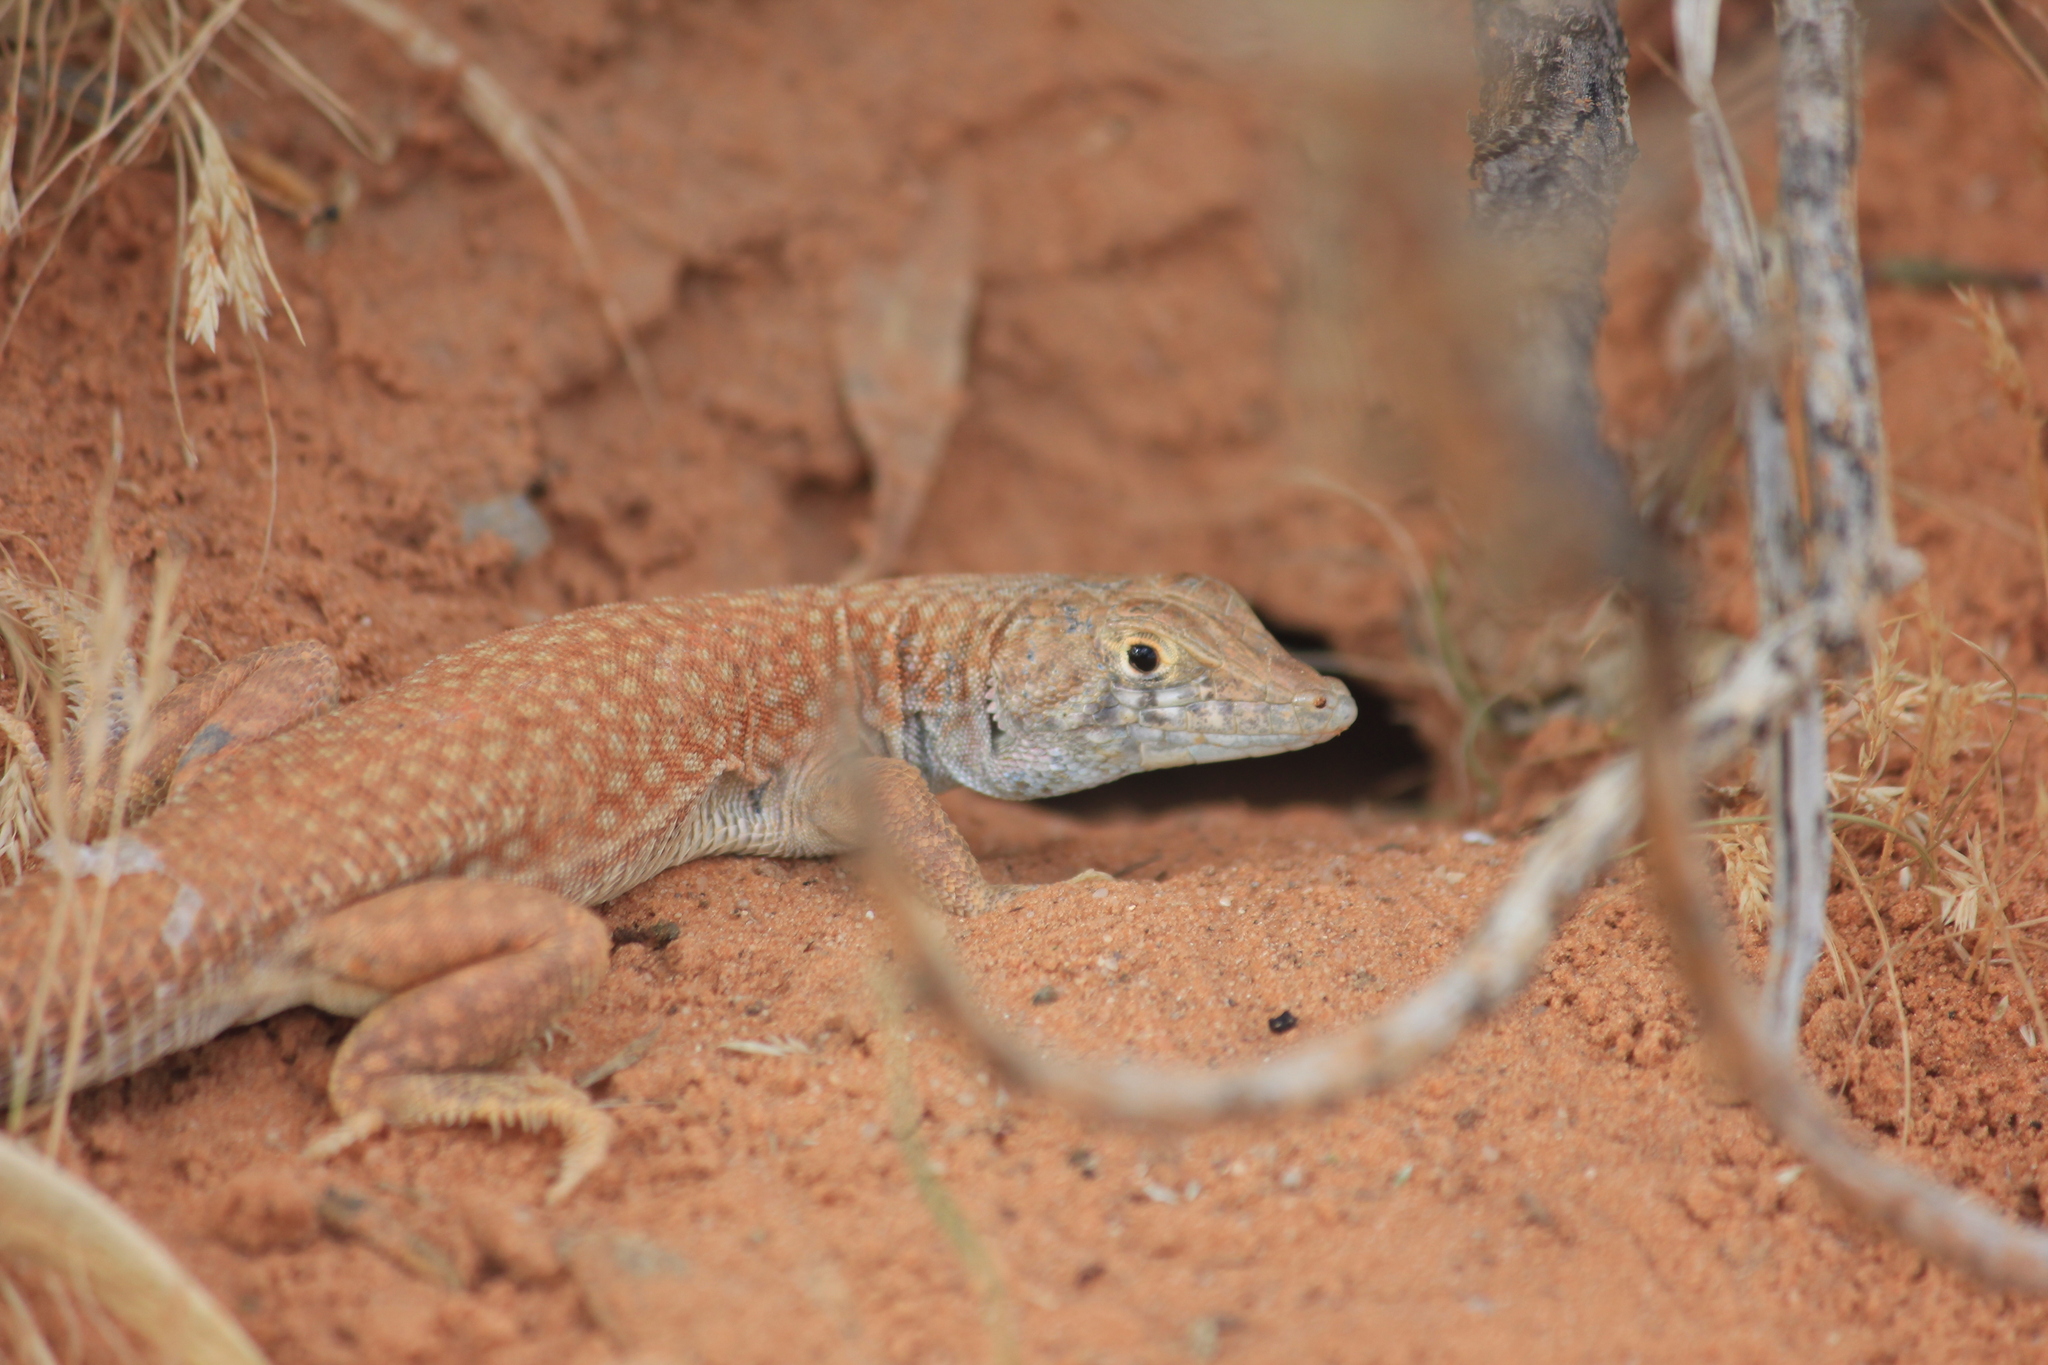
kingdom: Animalia
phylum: Chordata
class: Squamata
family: Lacertidae
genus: Acanthodactylus
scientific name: Acanthodactylus schmidti
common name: Schmidt's fringe-toed lizard
